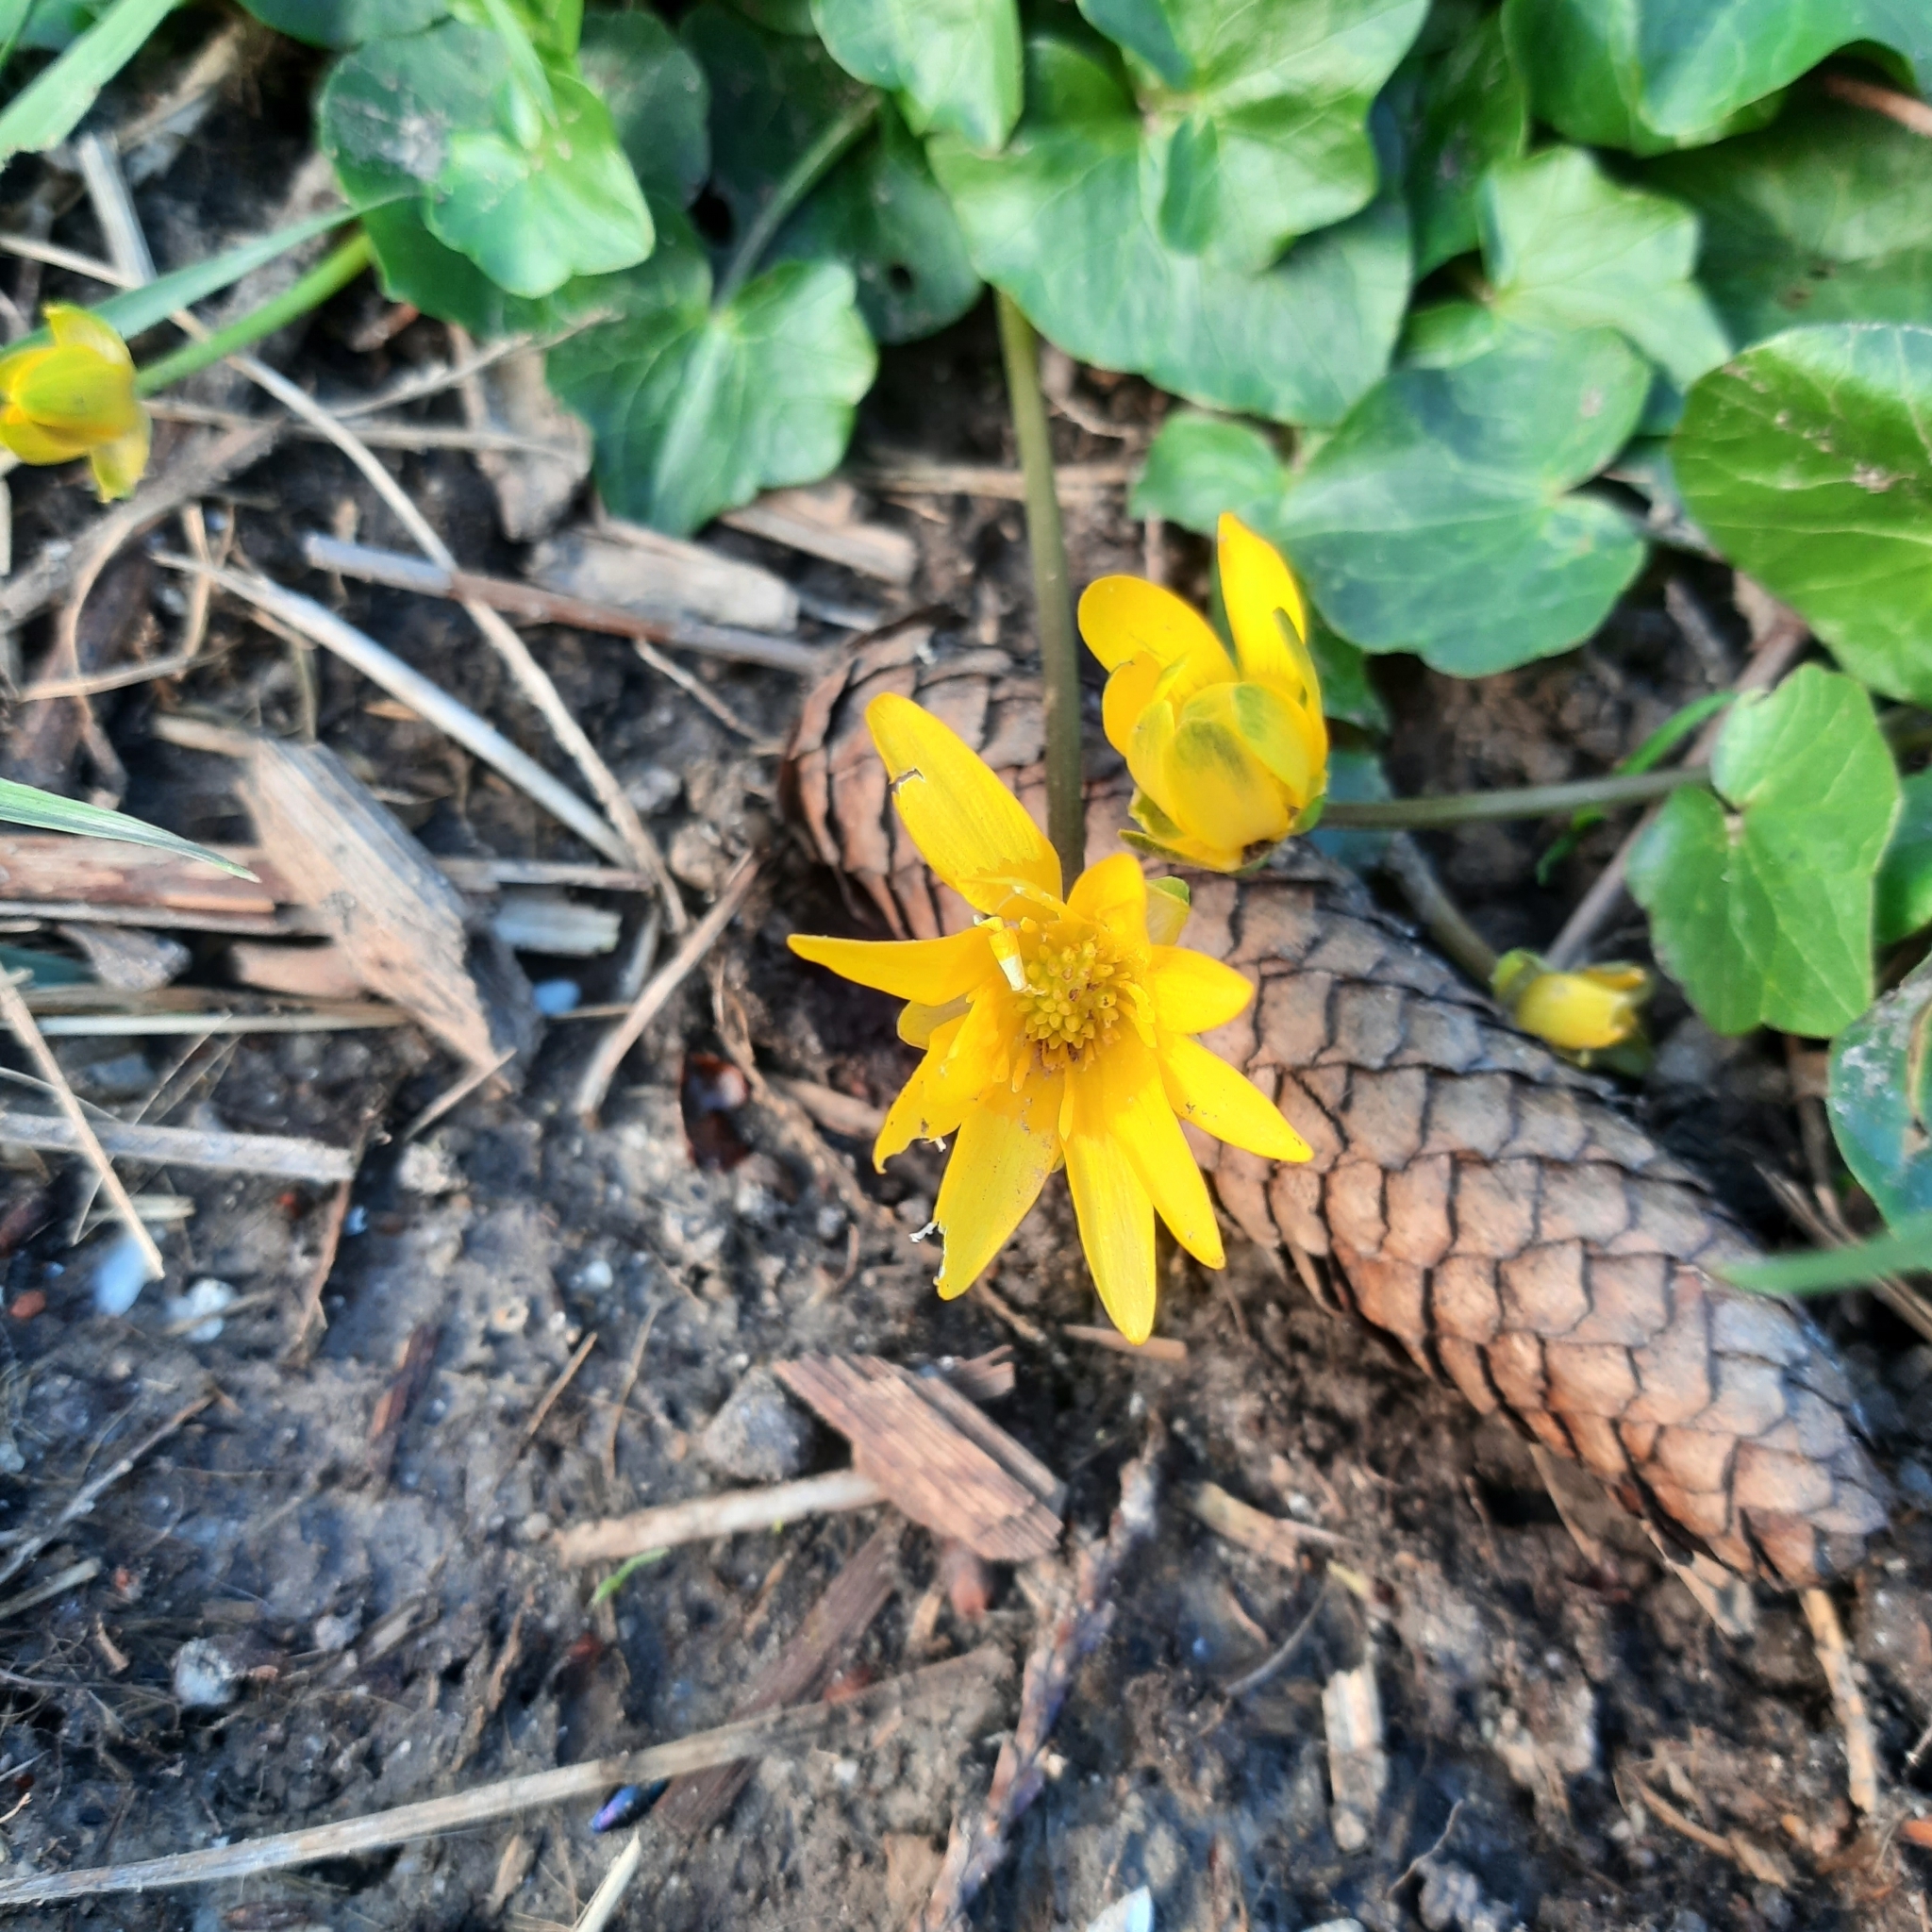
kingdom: Plantae
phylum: Tracheophyta
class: Magnoliopsida
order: Ranunculales
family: Ranunculaceae
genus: Ficaria
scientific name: Ficaria verna
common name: Lesser celandine
